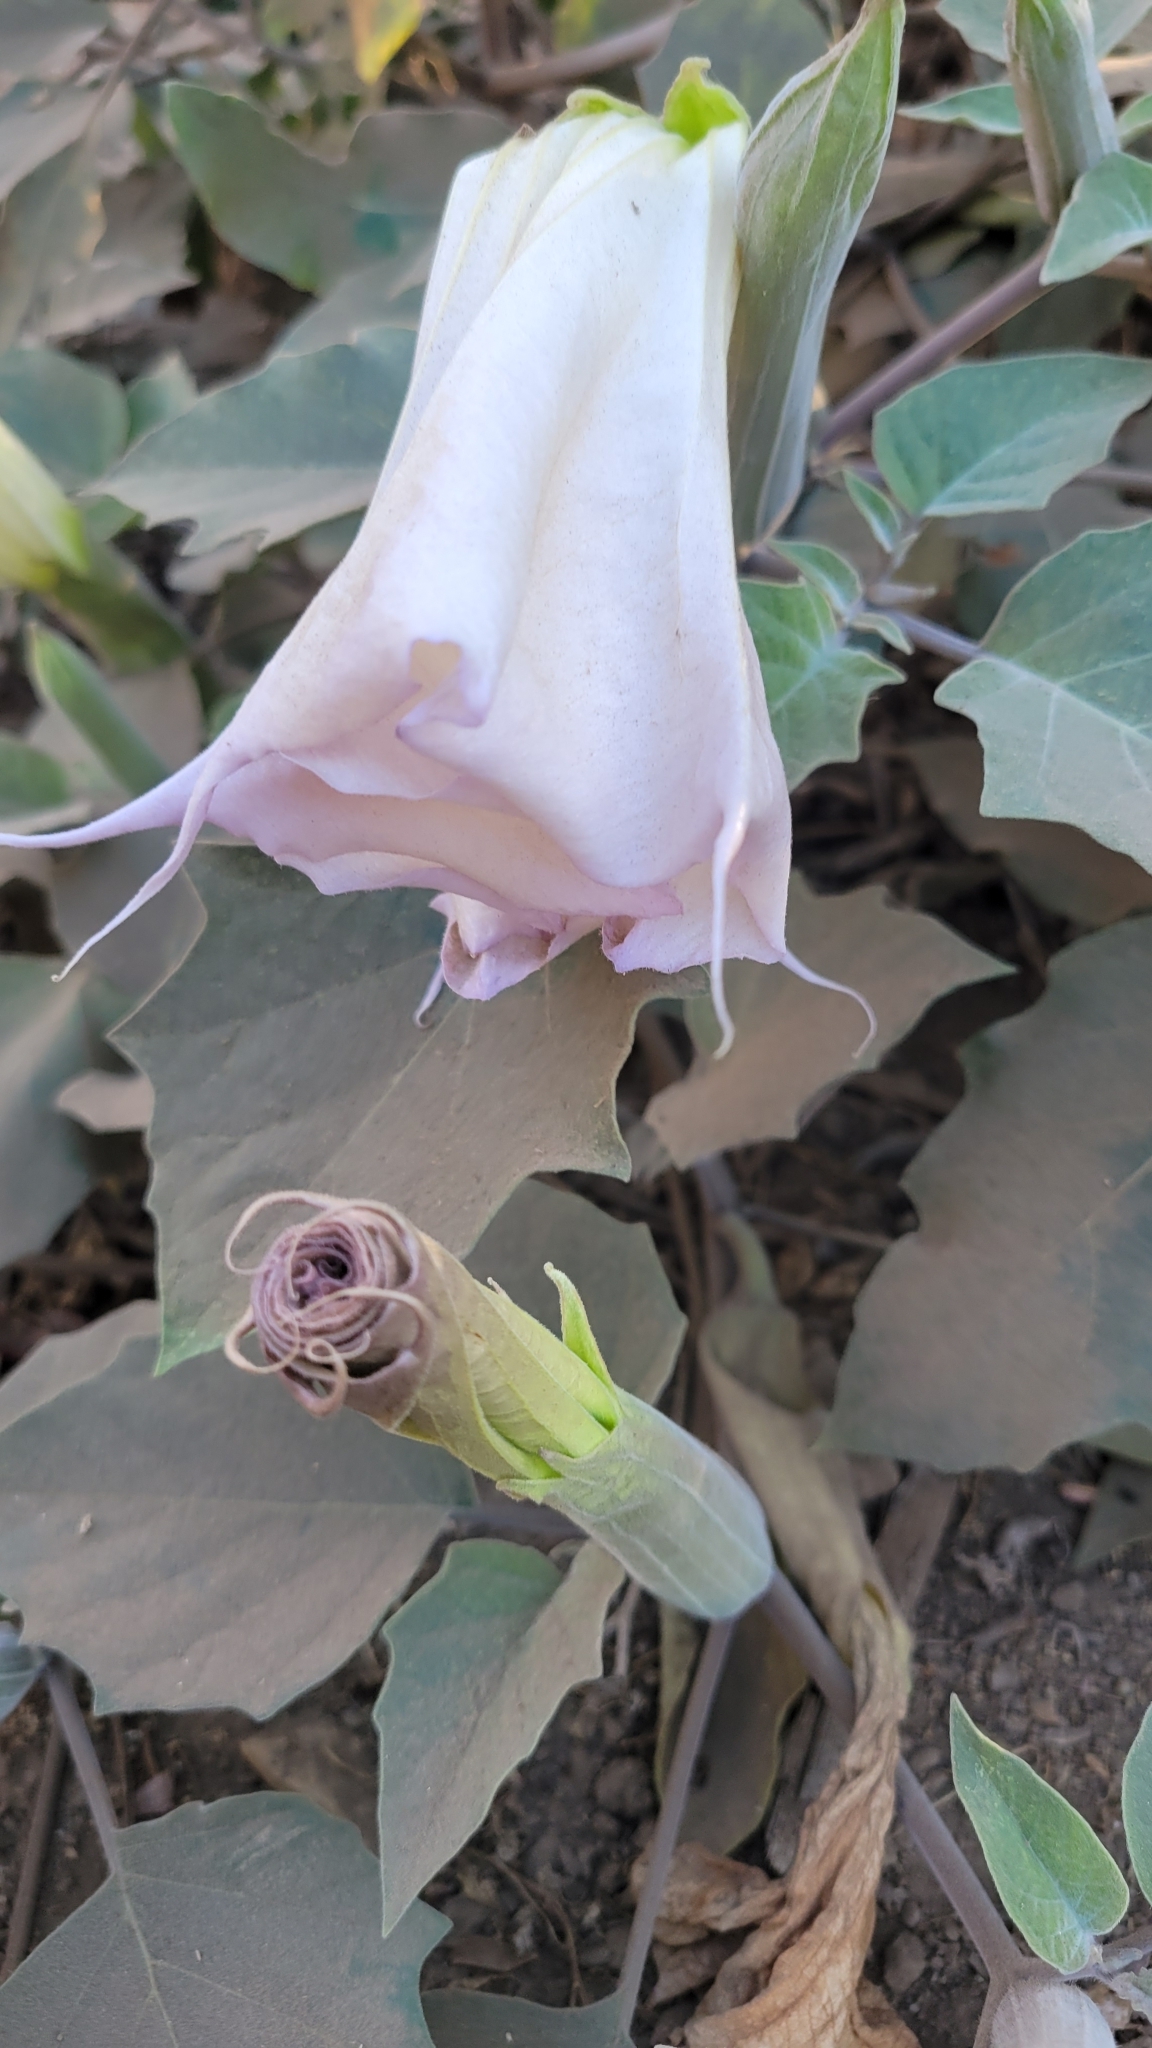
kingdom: Plantae
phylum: Tracheophyta
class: Magnoliopsida
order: Solanales
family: Solanaceae
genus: Datura
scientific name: Datura wrightii
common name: Sacred thorn-apple
